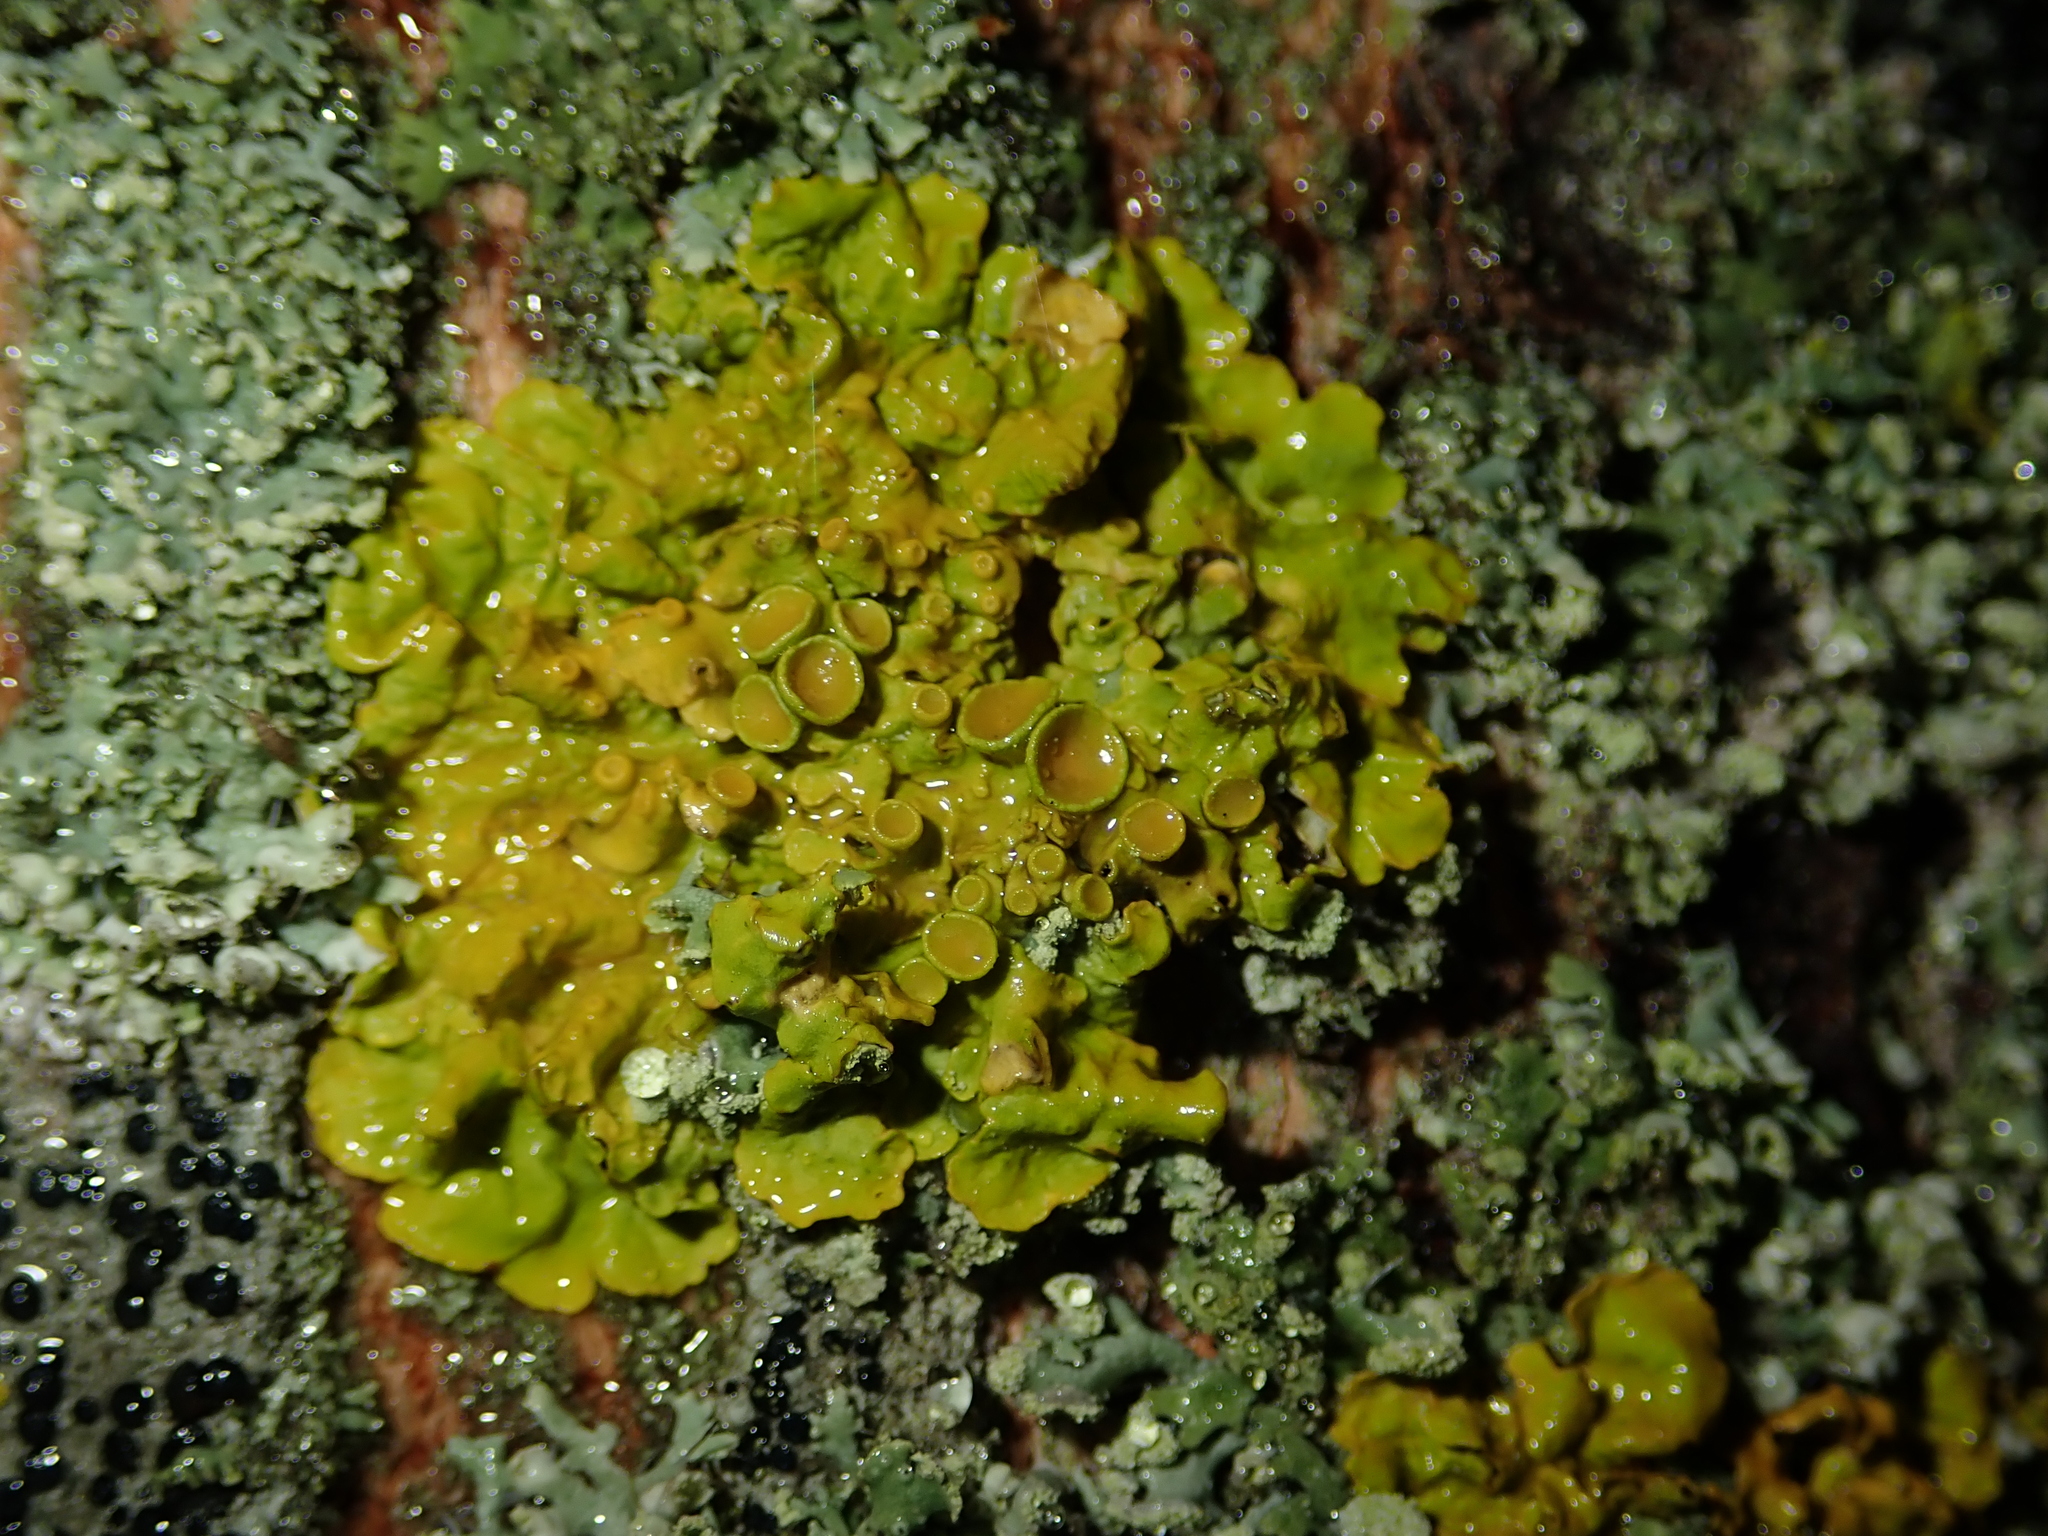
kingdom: Fungi
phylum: Ascomycota
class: Lecanoromycetes
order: Teloschistales
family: Teloschistaceae
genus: Xanthoria
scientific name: Xanthoria parietina
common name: Common orange lichen
